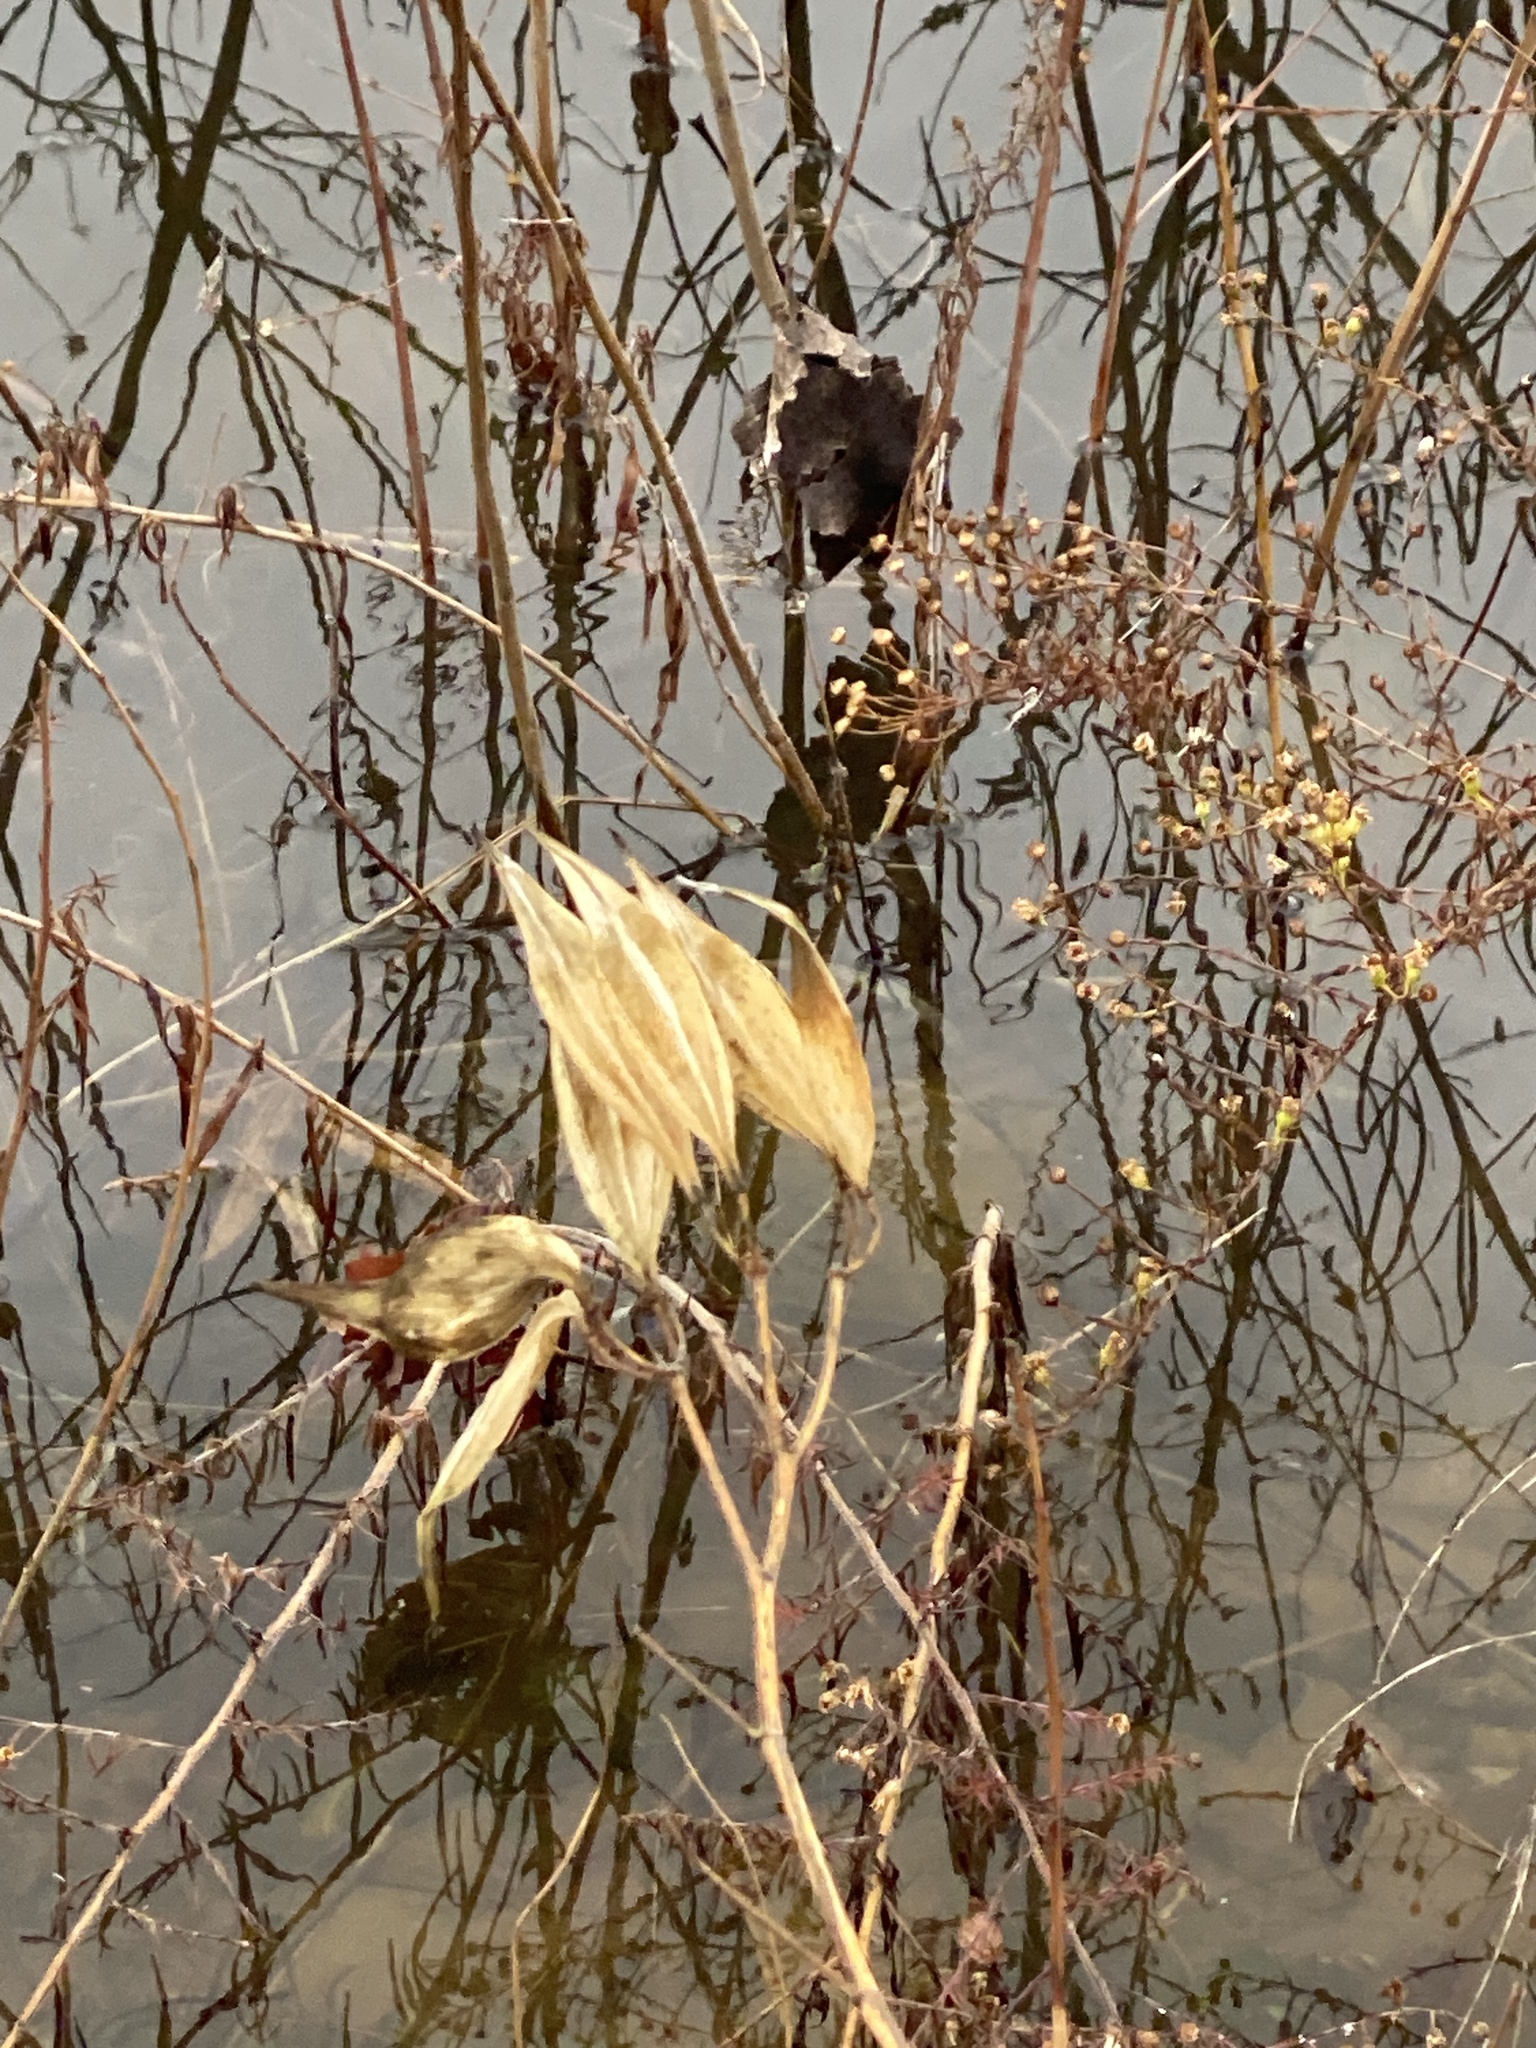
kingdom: Plantae
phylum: Tracheophyta
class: Magnoliopsida
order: Gentianales
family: Apocynaceae
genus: Asclepias
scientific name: Asclepias incarnata
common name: Swamp milkweed
